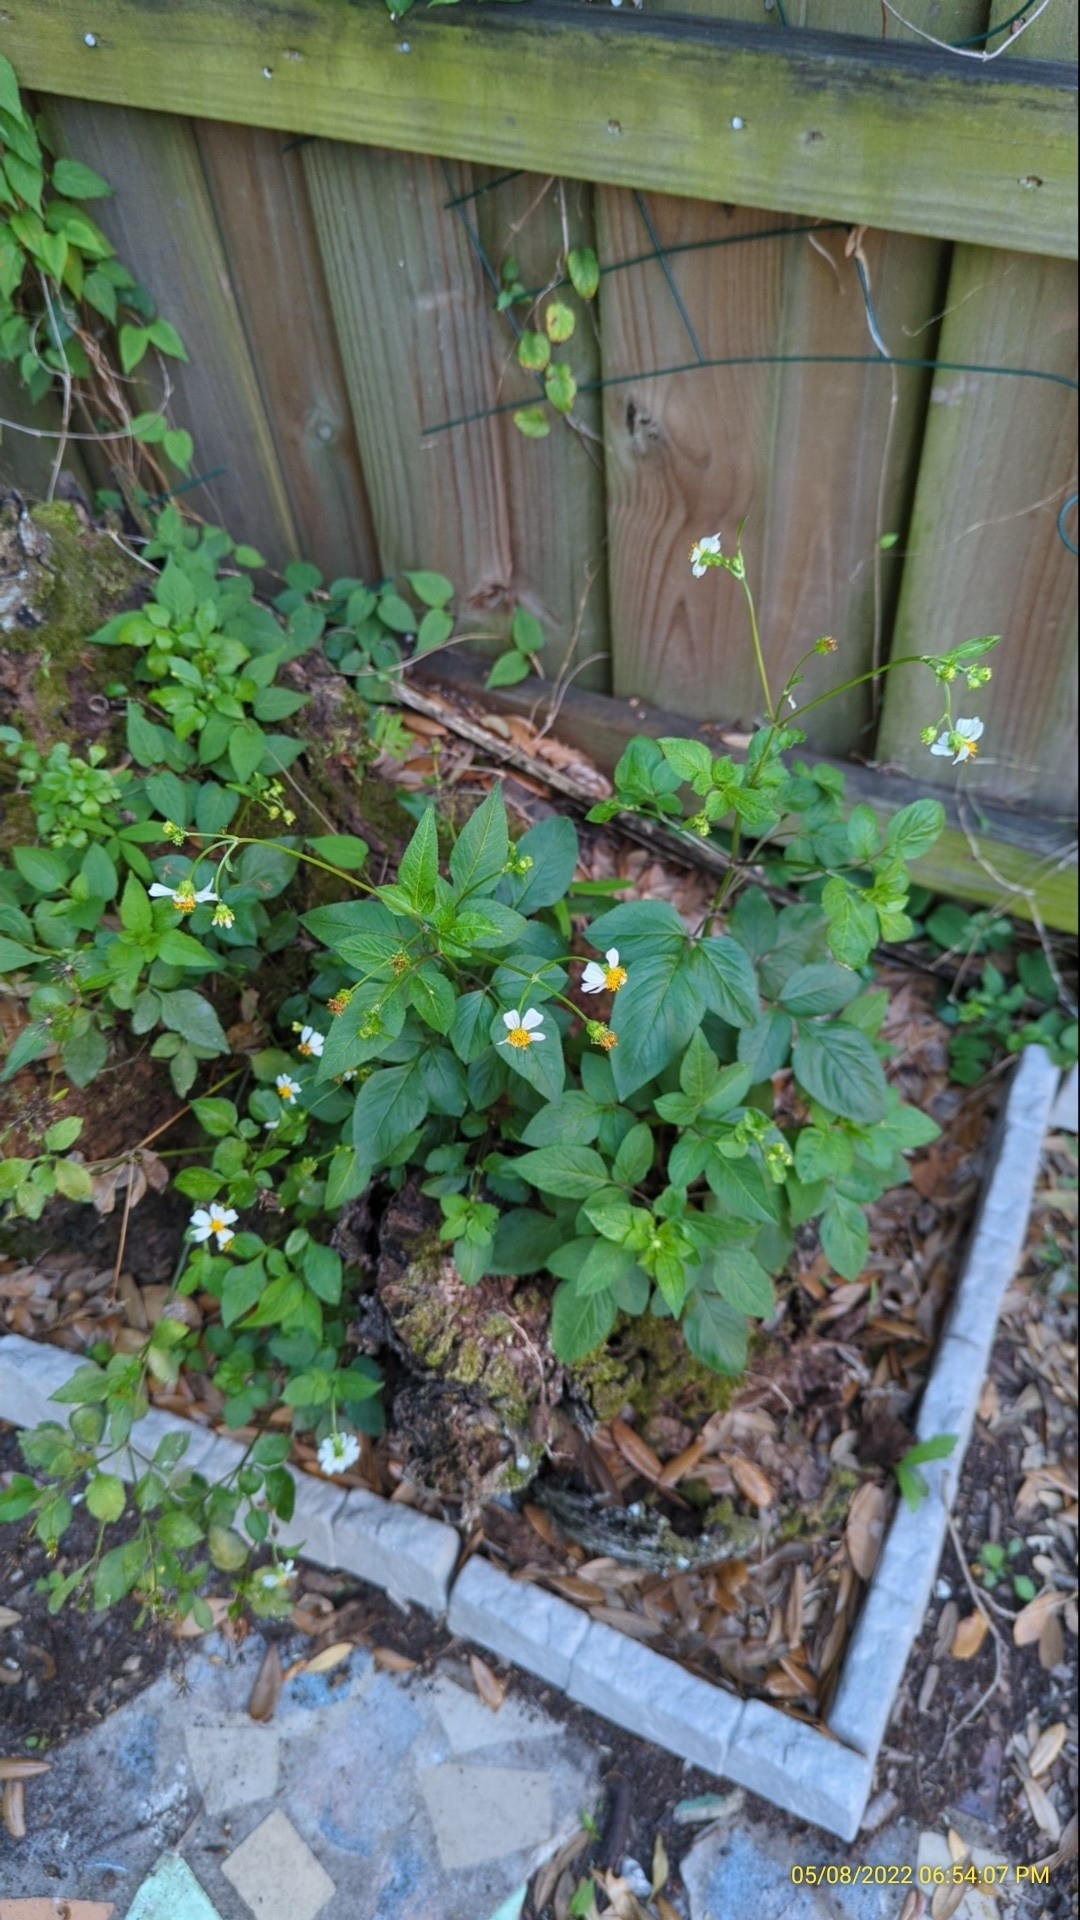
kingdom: Plantae
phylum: Tracheophyta
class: Magnoliopsida
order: Asterales
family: Asteraceae
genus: Bidens
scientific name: Bidens alba
